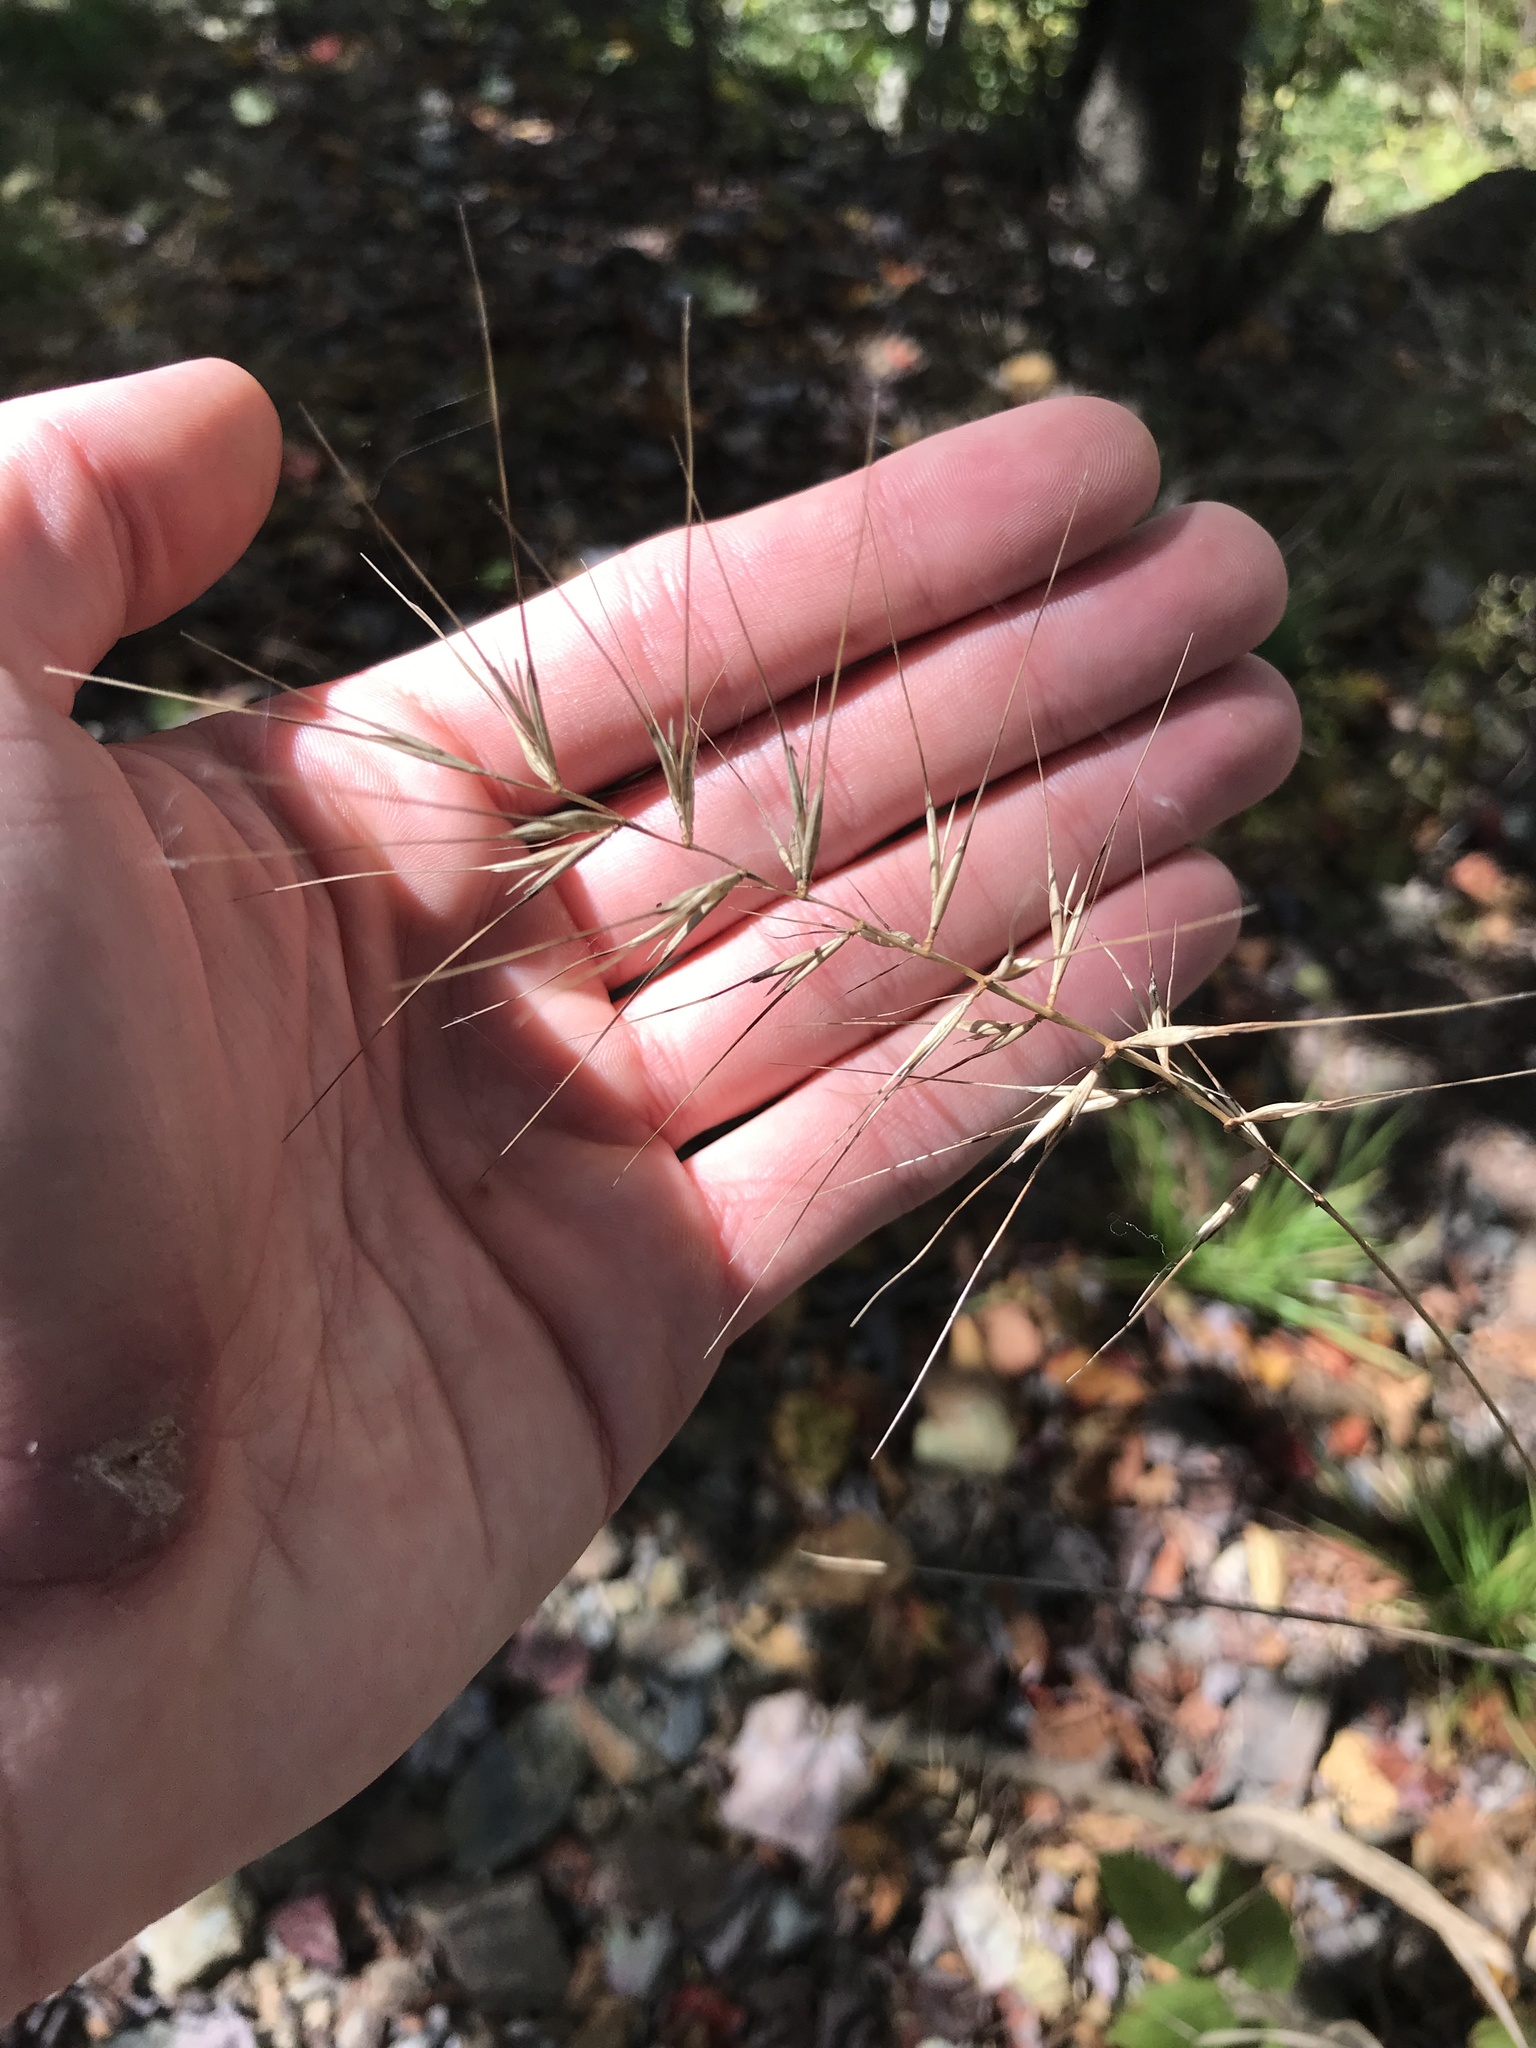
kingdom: Plantae
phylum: Tracheophyta
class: Liliopsida
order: Poales
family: Poaceae
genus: Elymus
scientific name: Elymus hystrix
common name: Bottlebrush grass
